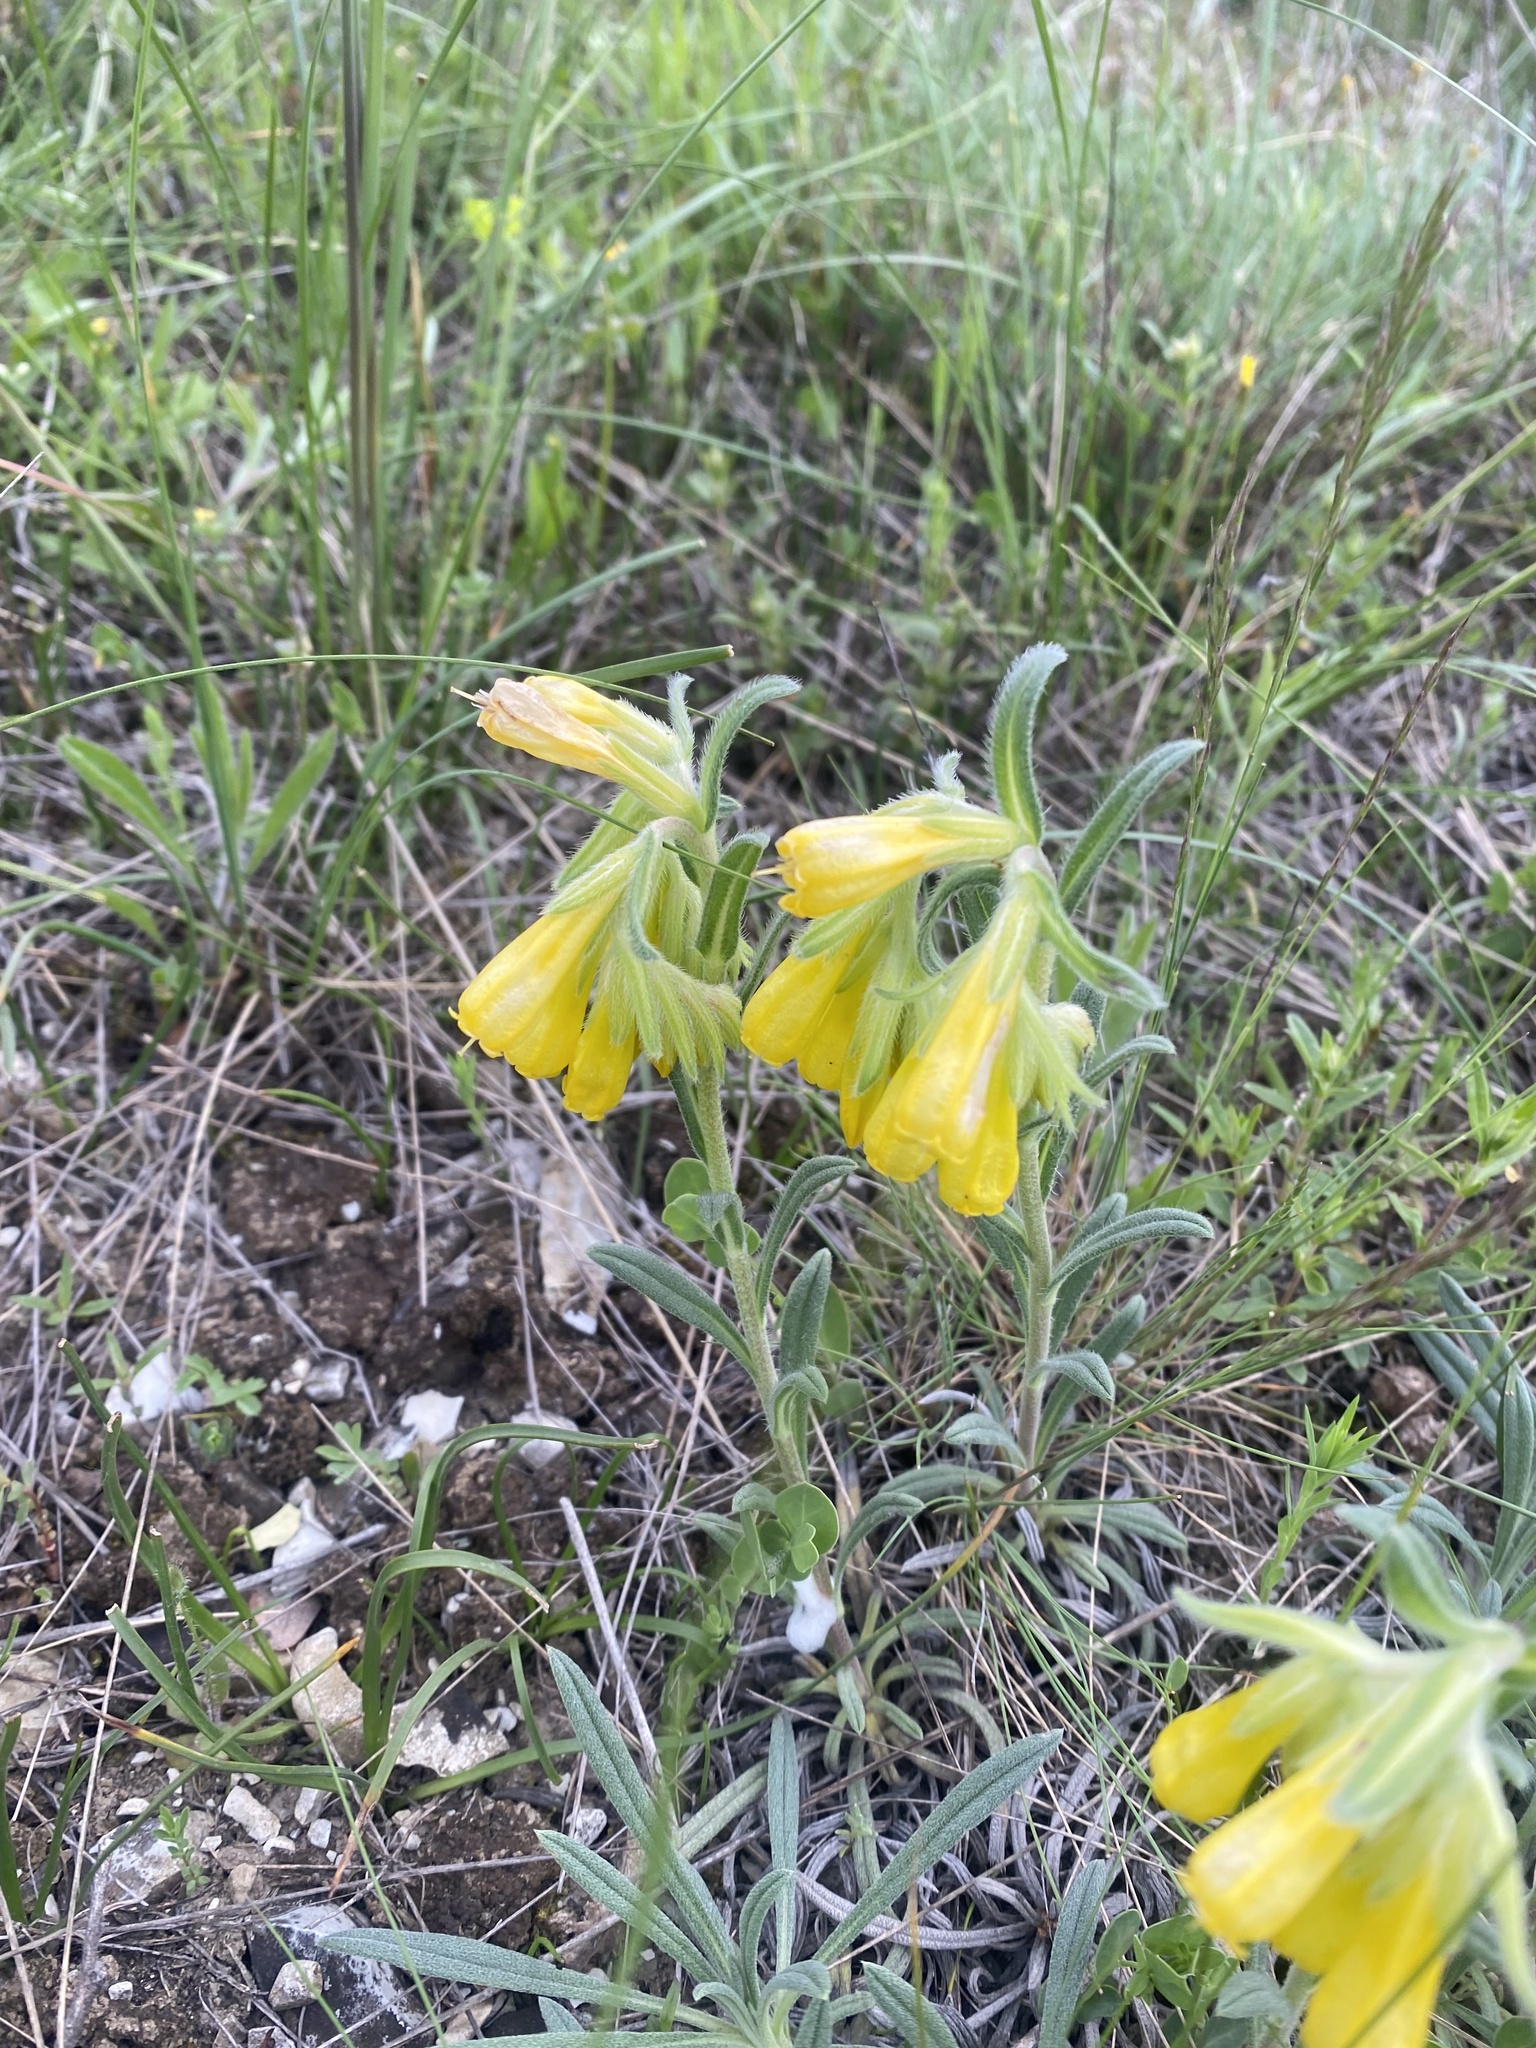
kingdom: Plantae
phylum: Tracheophyta
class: Magnoliopsida
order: Boraginales
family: Boraginaceae
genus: Onosma
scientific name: Onosma taurica
